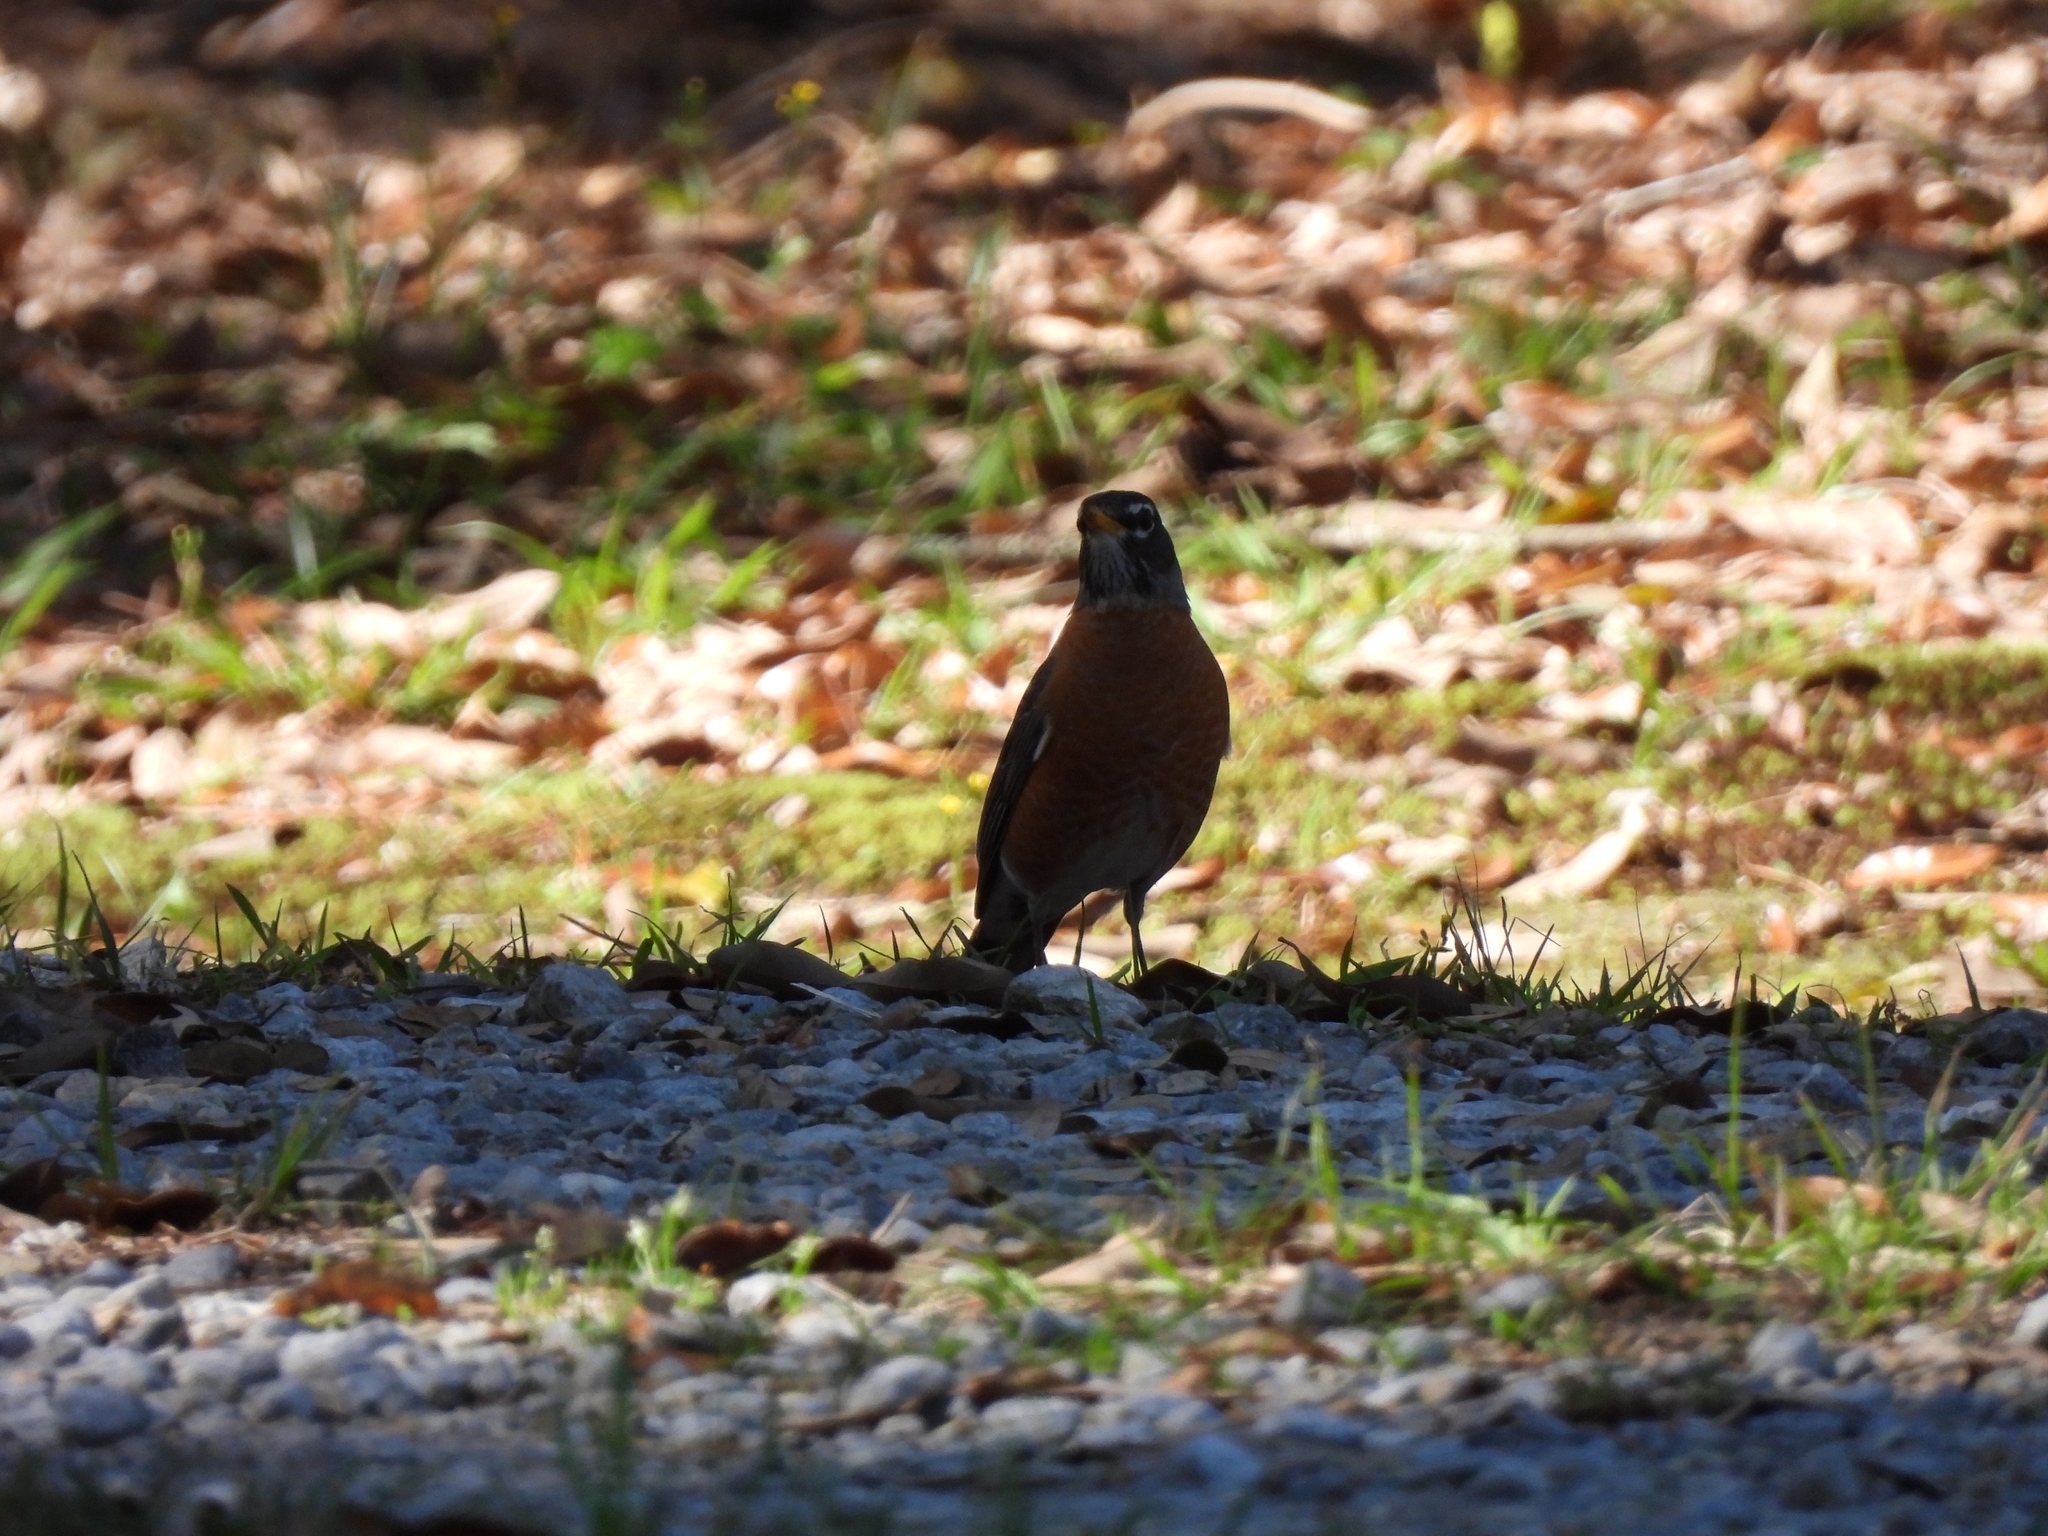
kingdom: Animalia
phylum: Chordata
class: Aves
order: Passeriformes
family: Turdidae
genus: Turdus
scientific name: Turdus migratorius
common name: American robin
